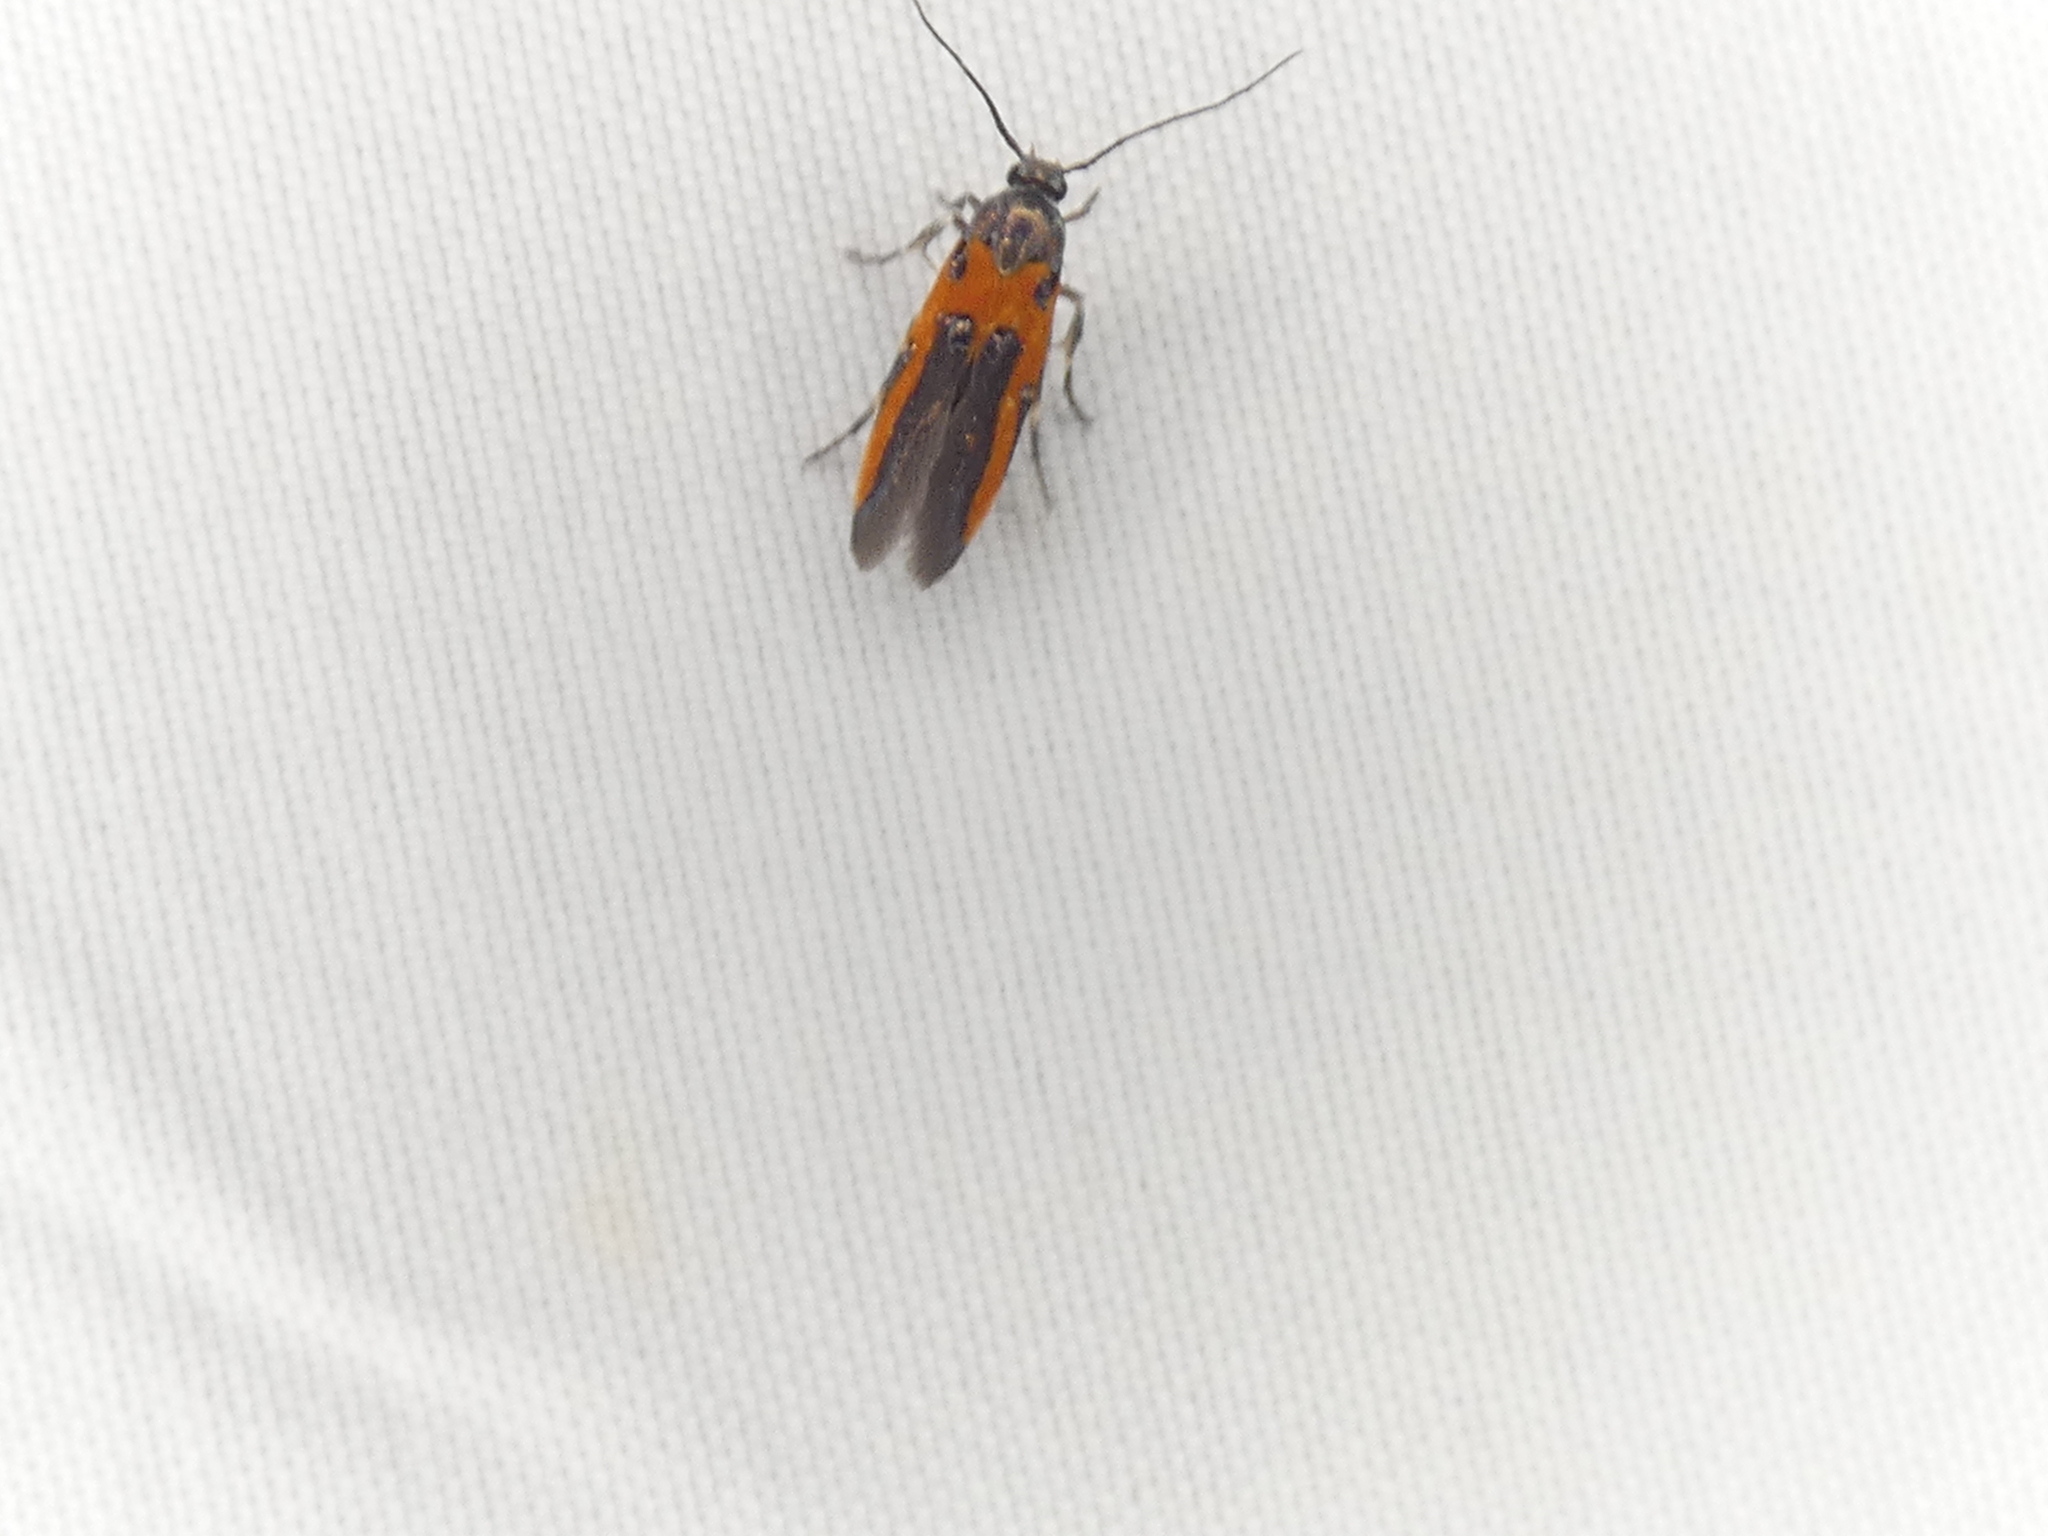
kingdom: Animalia
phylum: Arthropoda
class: Insecta
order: Lepidoptera
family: Cosmopterigidae
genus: Euclemensia
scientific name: Euclemensia bassettella
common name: Kermes scale moth
